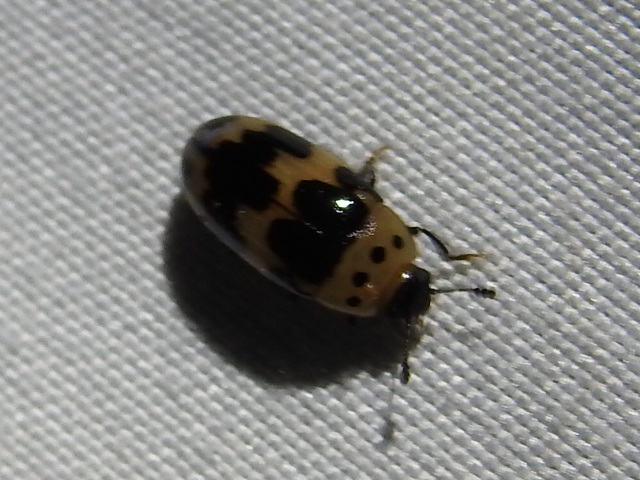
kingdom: Animalia
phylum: Arthropoda
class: Insecta
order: Coleoptera
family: Erotylidae
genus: Ischyrus
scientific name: Ischyrus quadripunctatus
